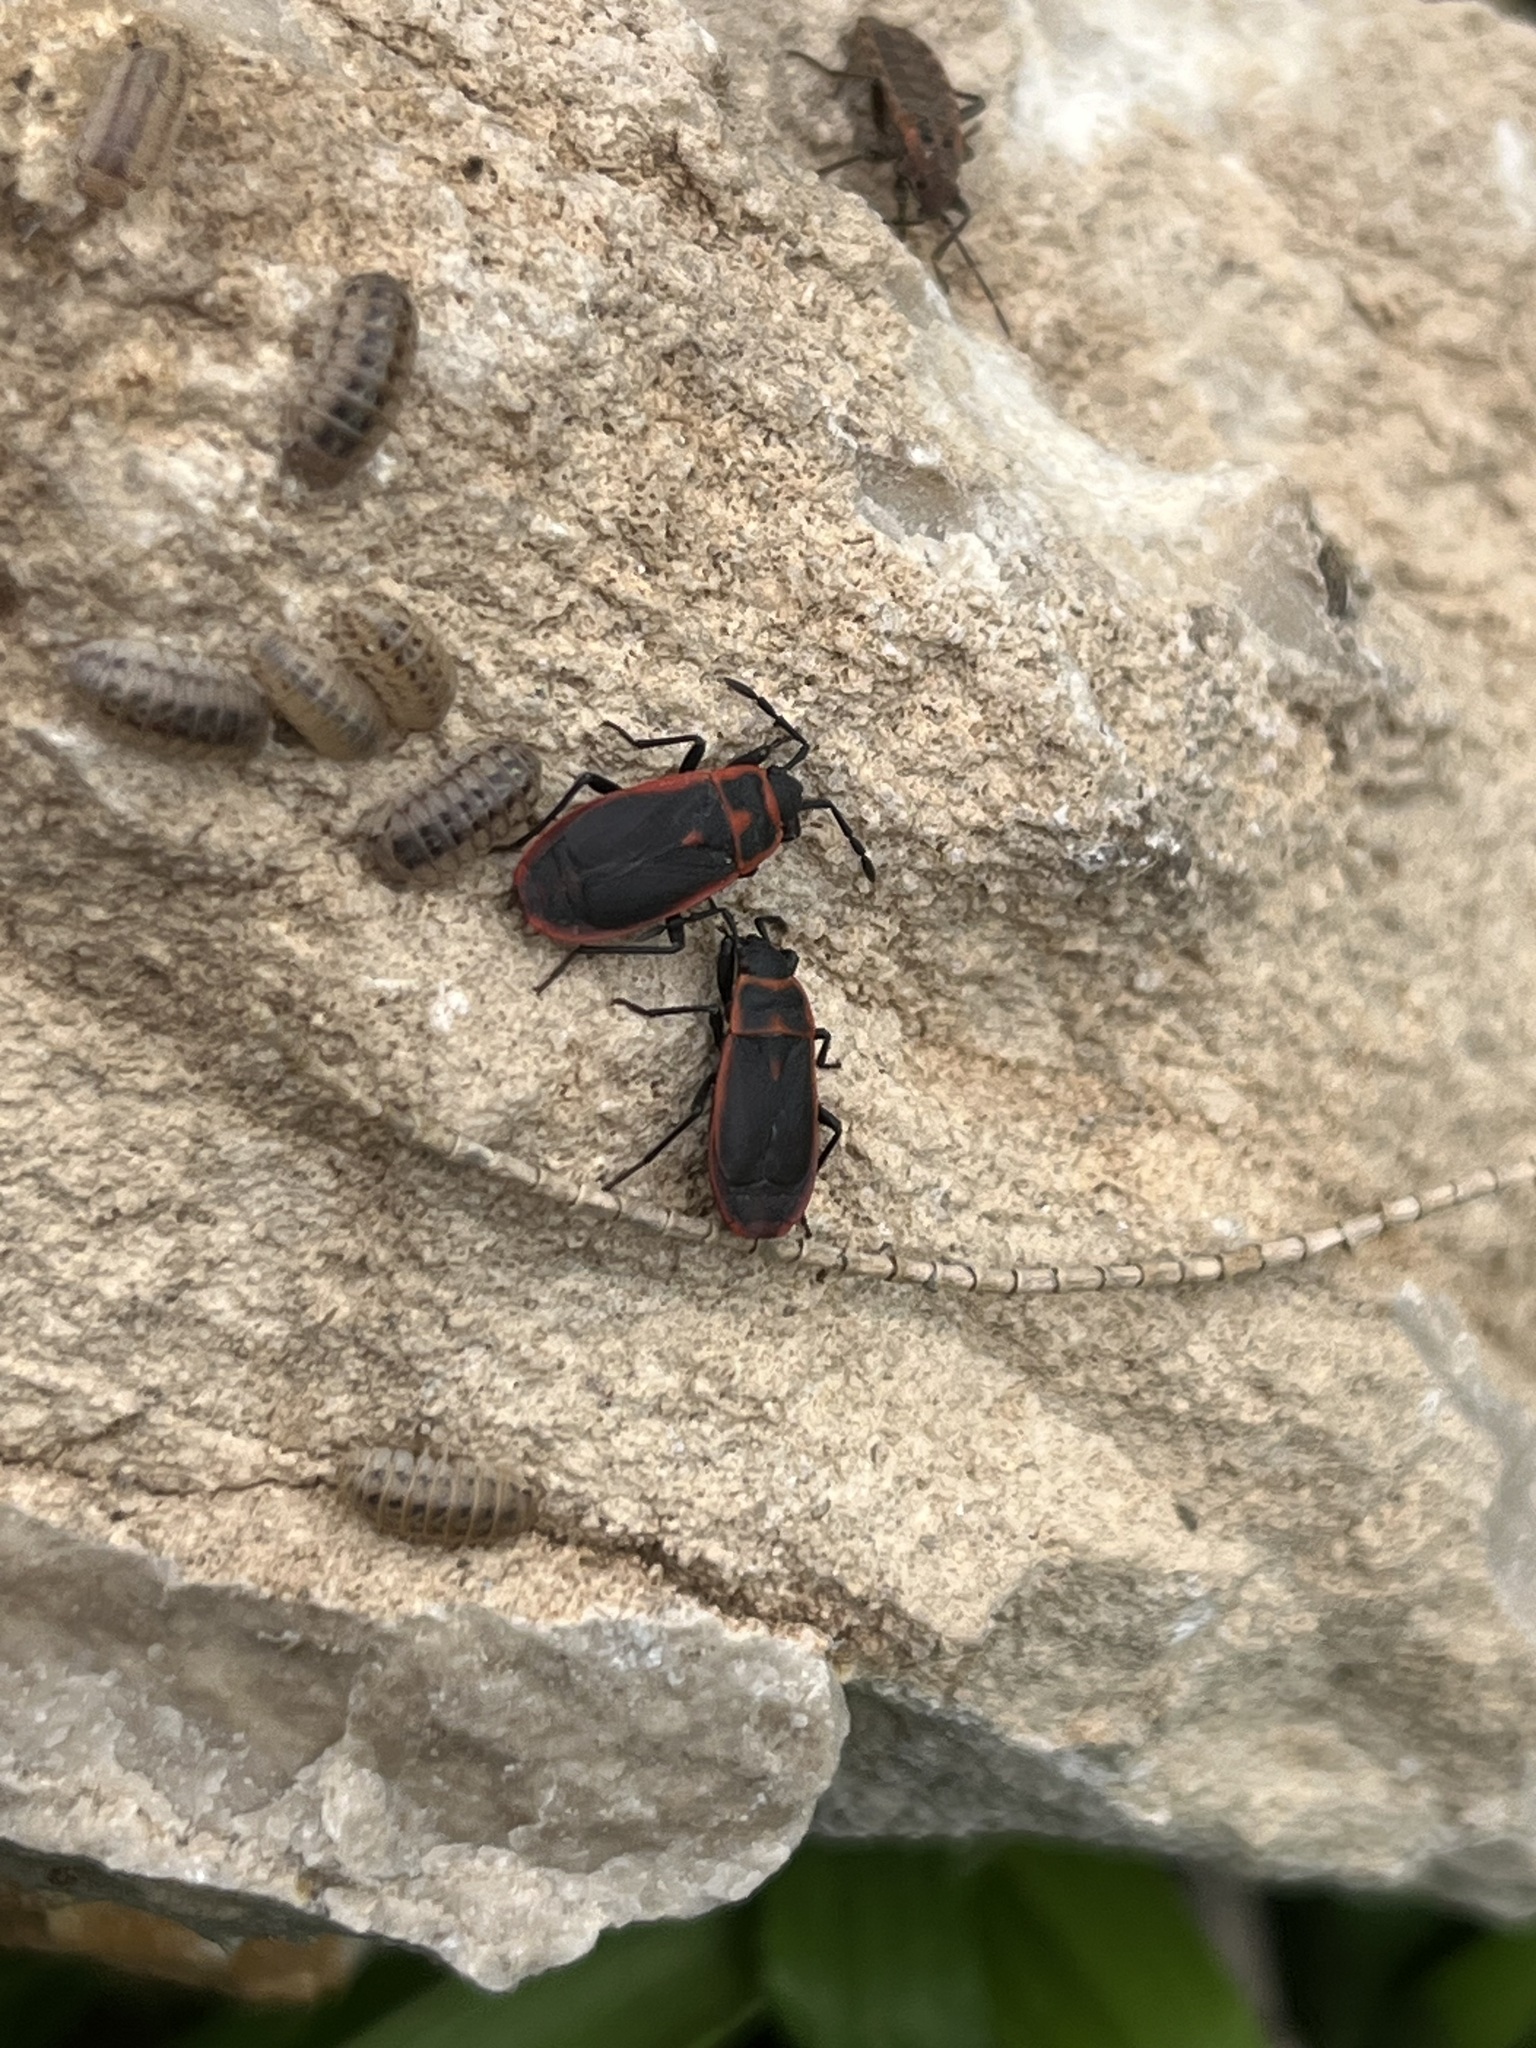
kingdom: Animalia
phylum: Arthropoda
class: Insecta
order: Hemiptera
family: Pyrrhocoridae
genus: Scantius
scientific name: Scantius forsteri
